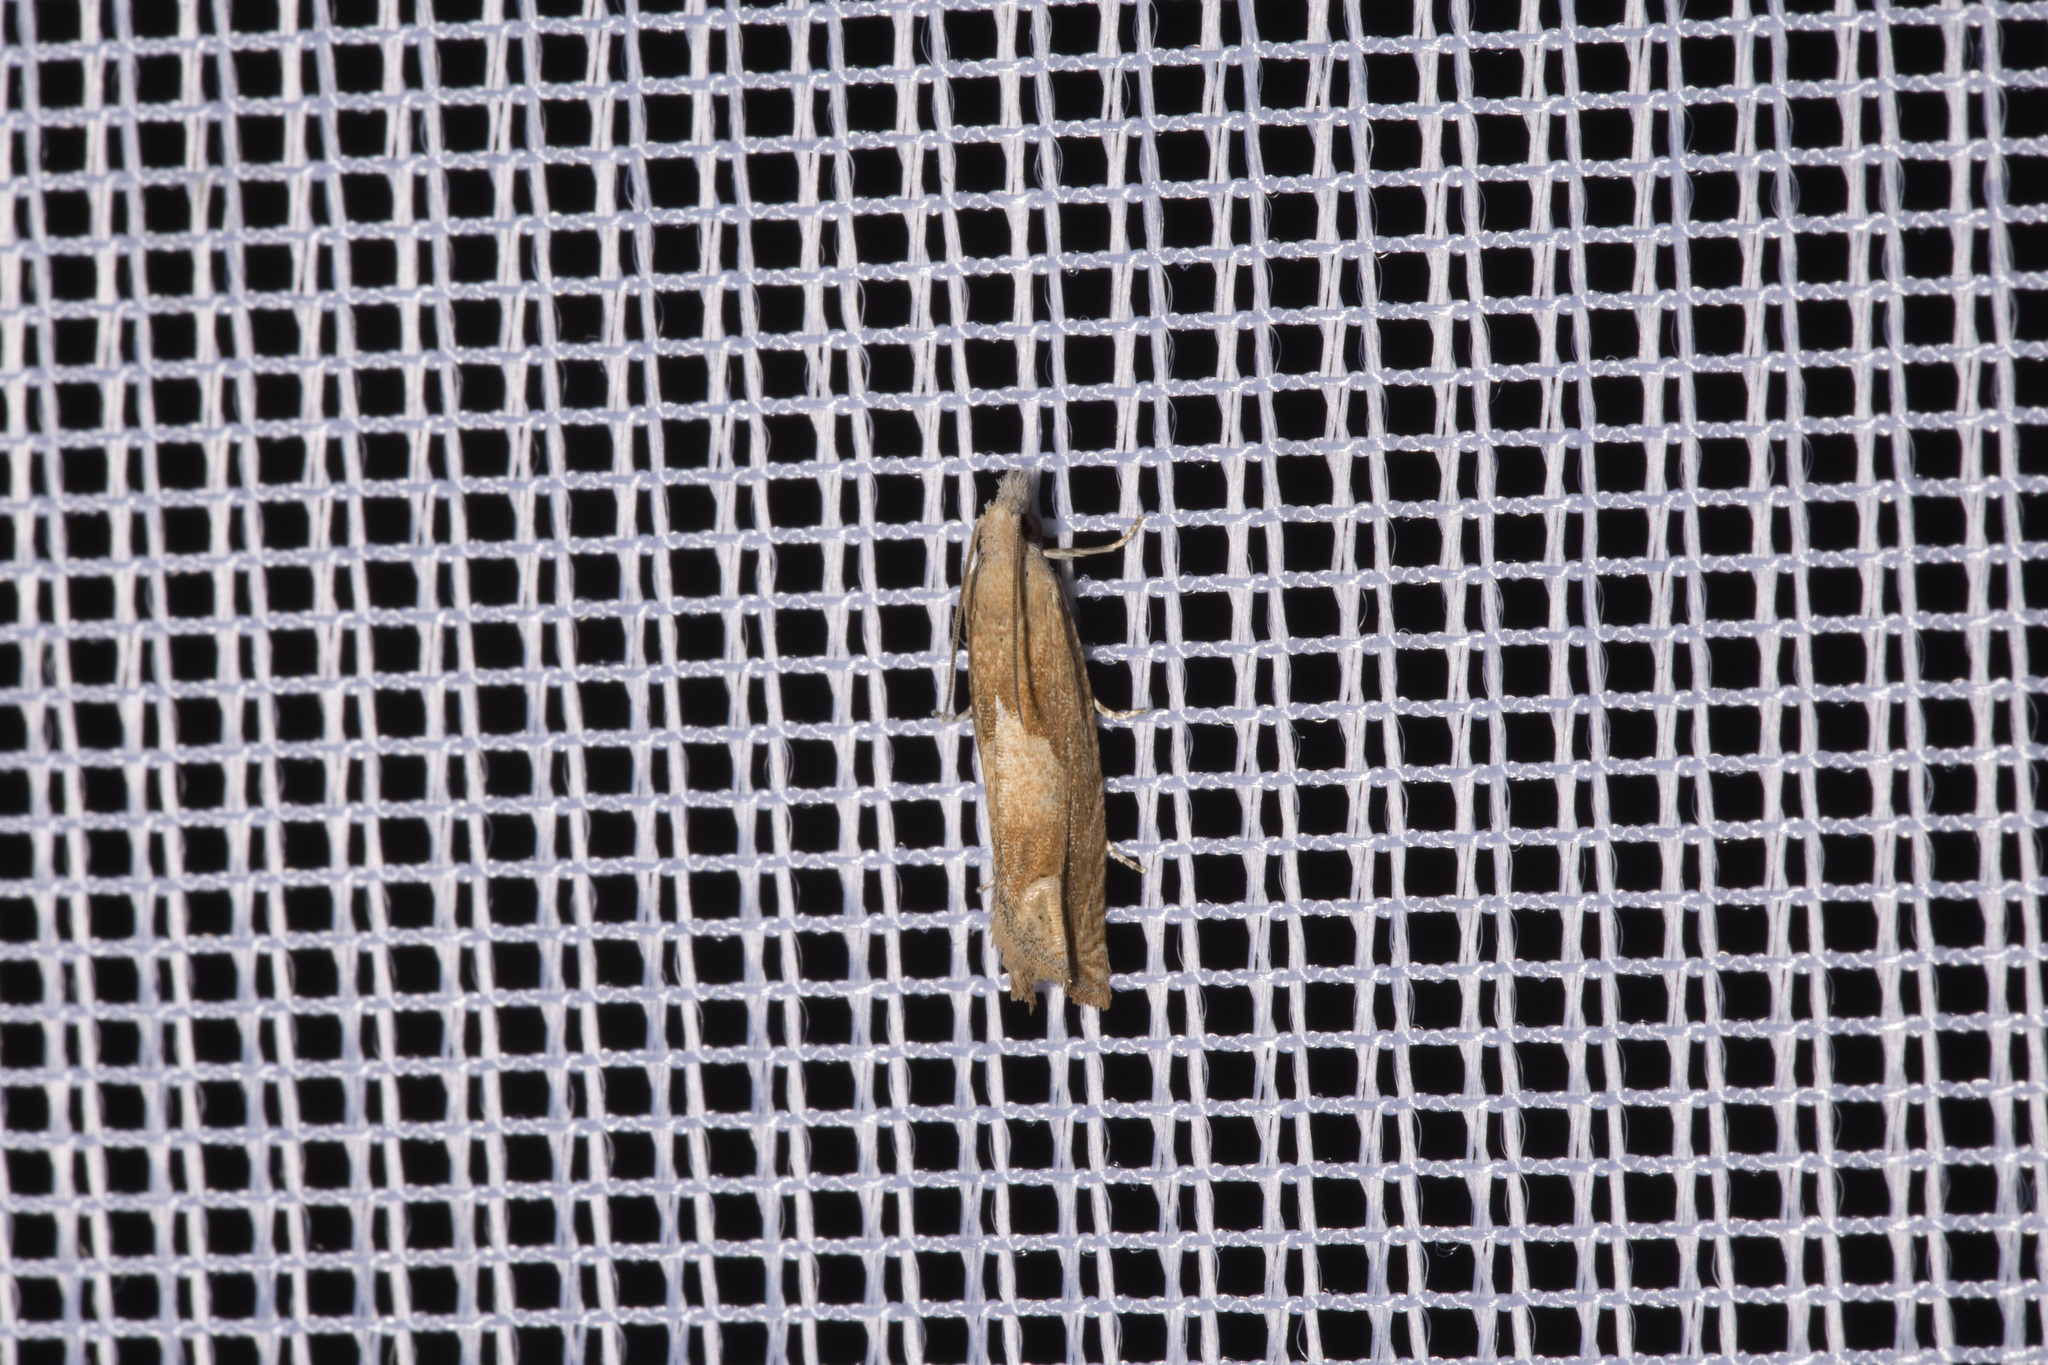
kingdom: Animalia
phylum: Arthropoda
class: Insecta
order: Lepidoptera
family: Tortricidae
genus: Eucosma
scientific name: Eucosma conterminana
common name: Pale lettuce bell
